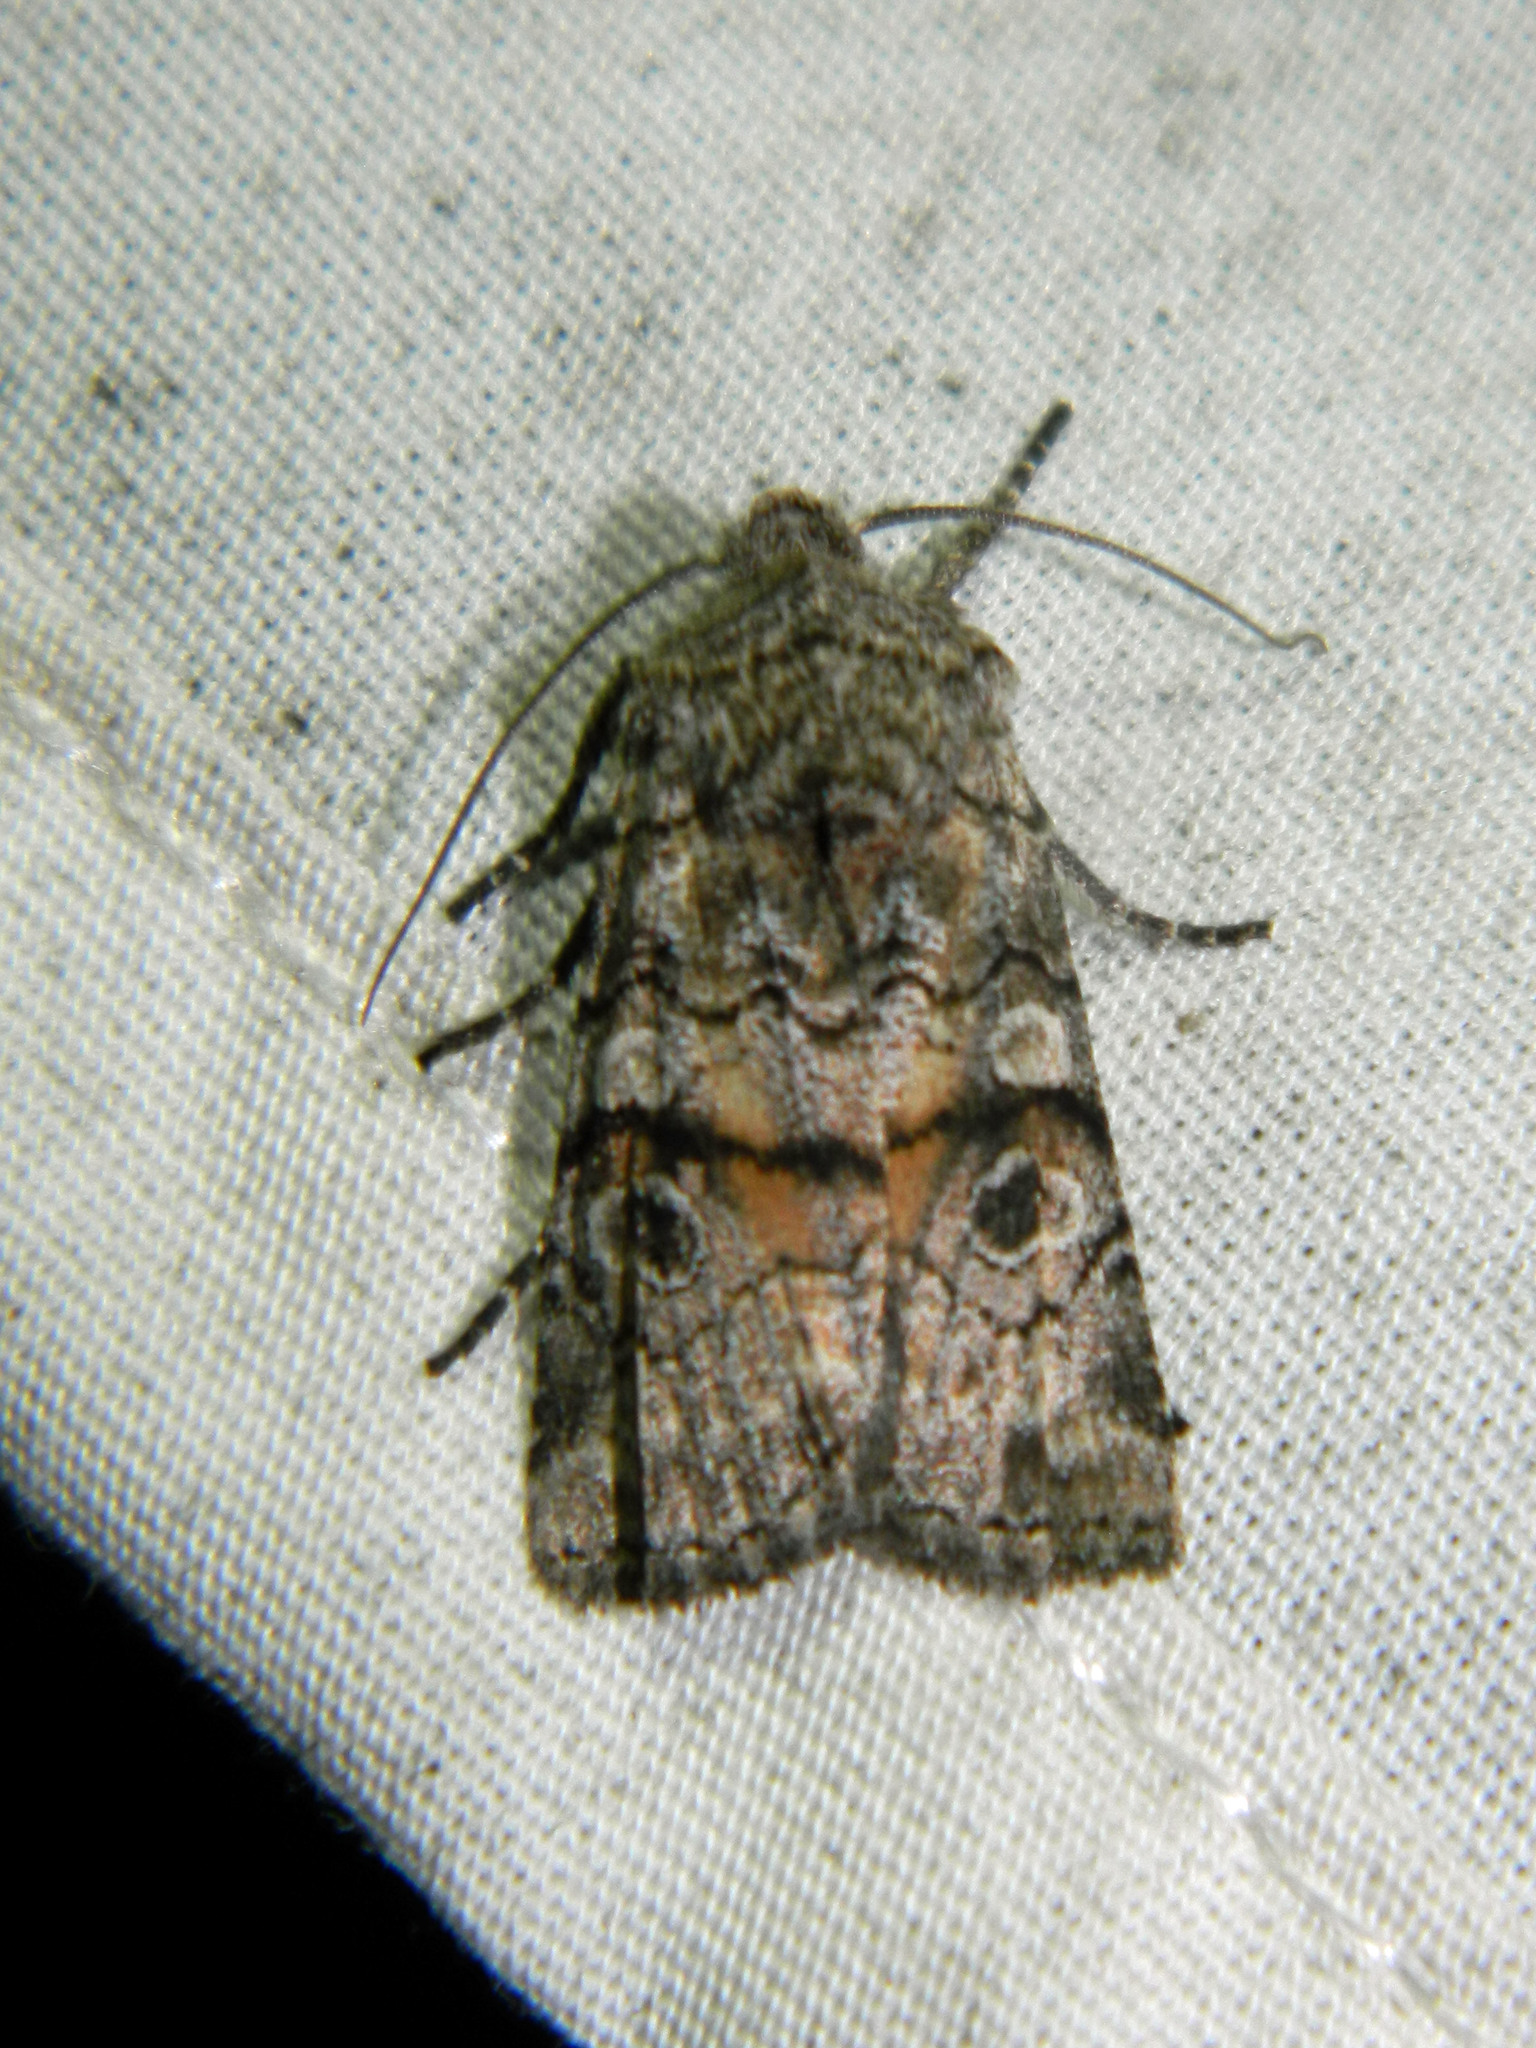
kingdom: Animalia
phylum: Arthropoda
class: Insecta
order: Lepidoptera
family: Noctuidae
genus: Litholomia
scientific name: Litholomia napaea
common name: False pinion moth
